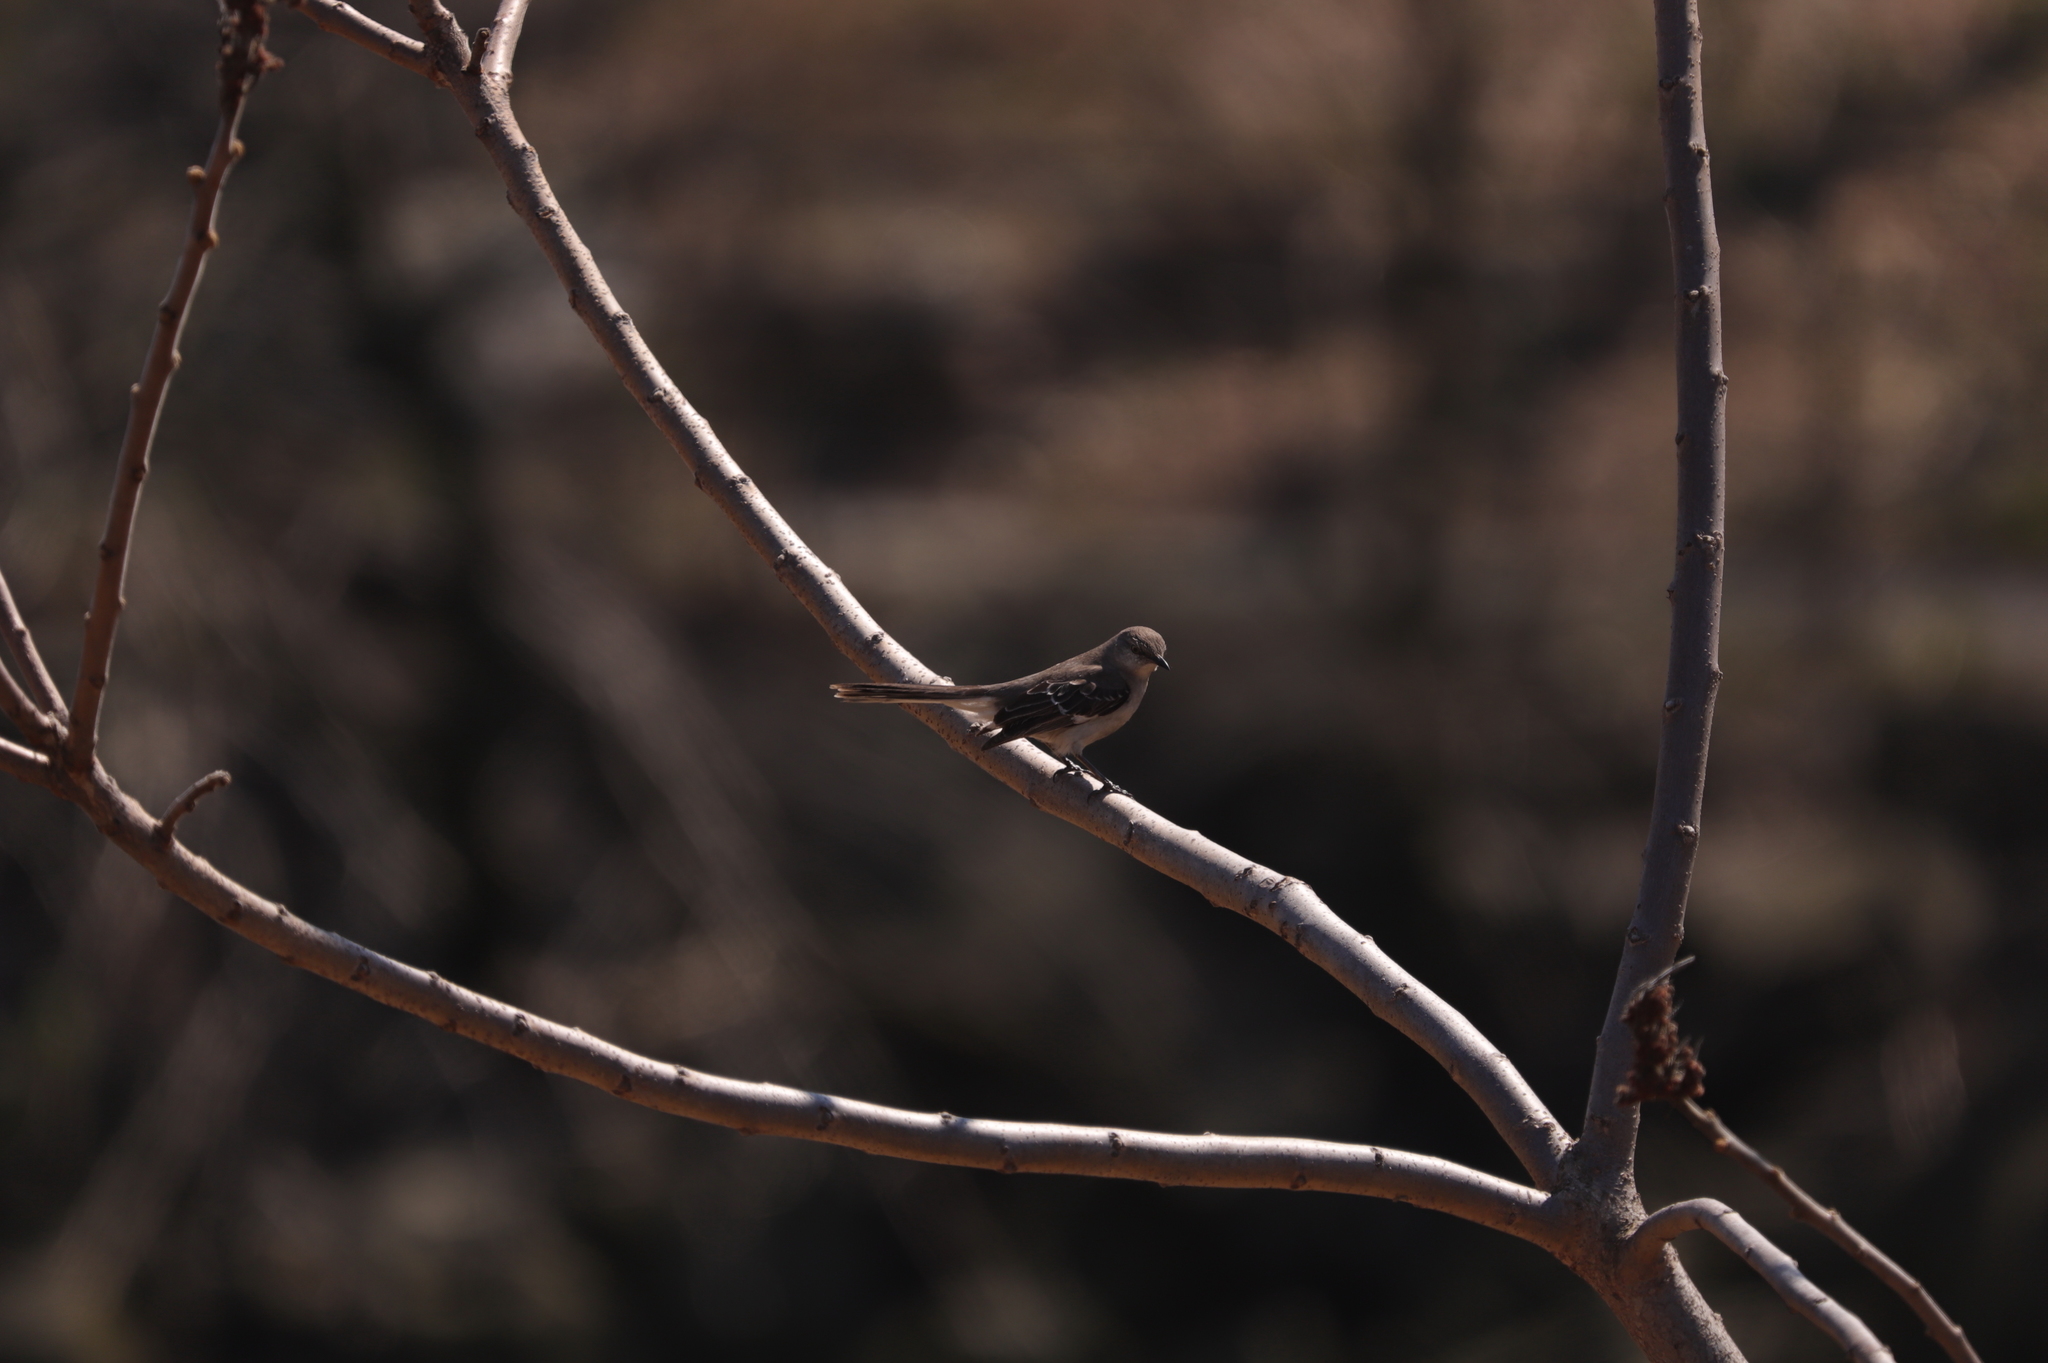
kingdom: Plantae
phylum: Tracheophyta
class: Magnoliopsida
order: Sapindales
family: Anacardiaceae
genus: Rhus
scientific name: Rhus
